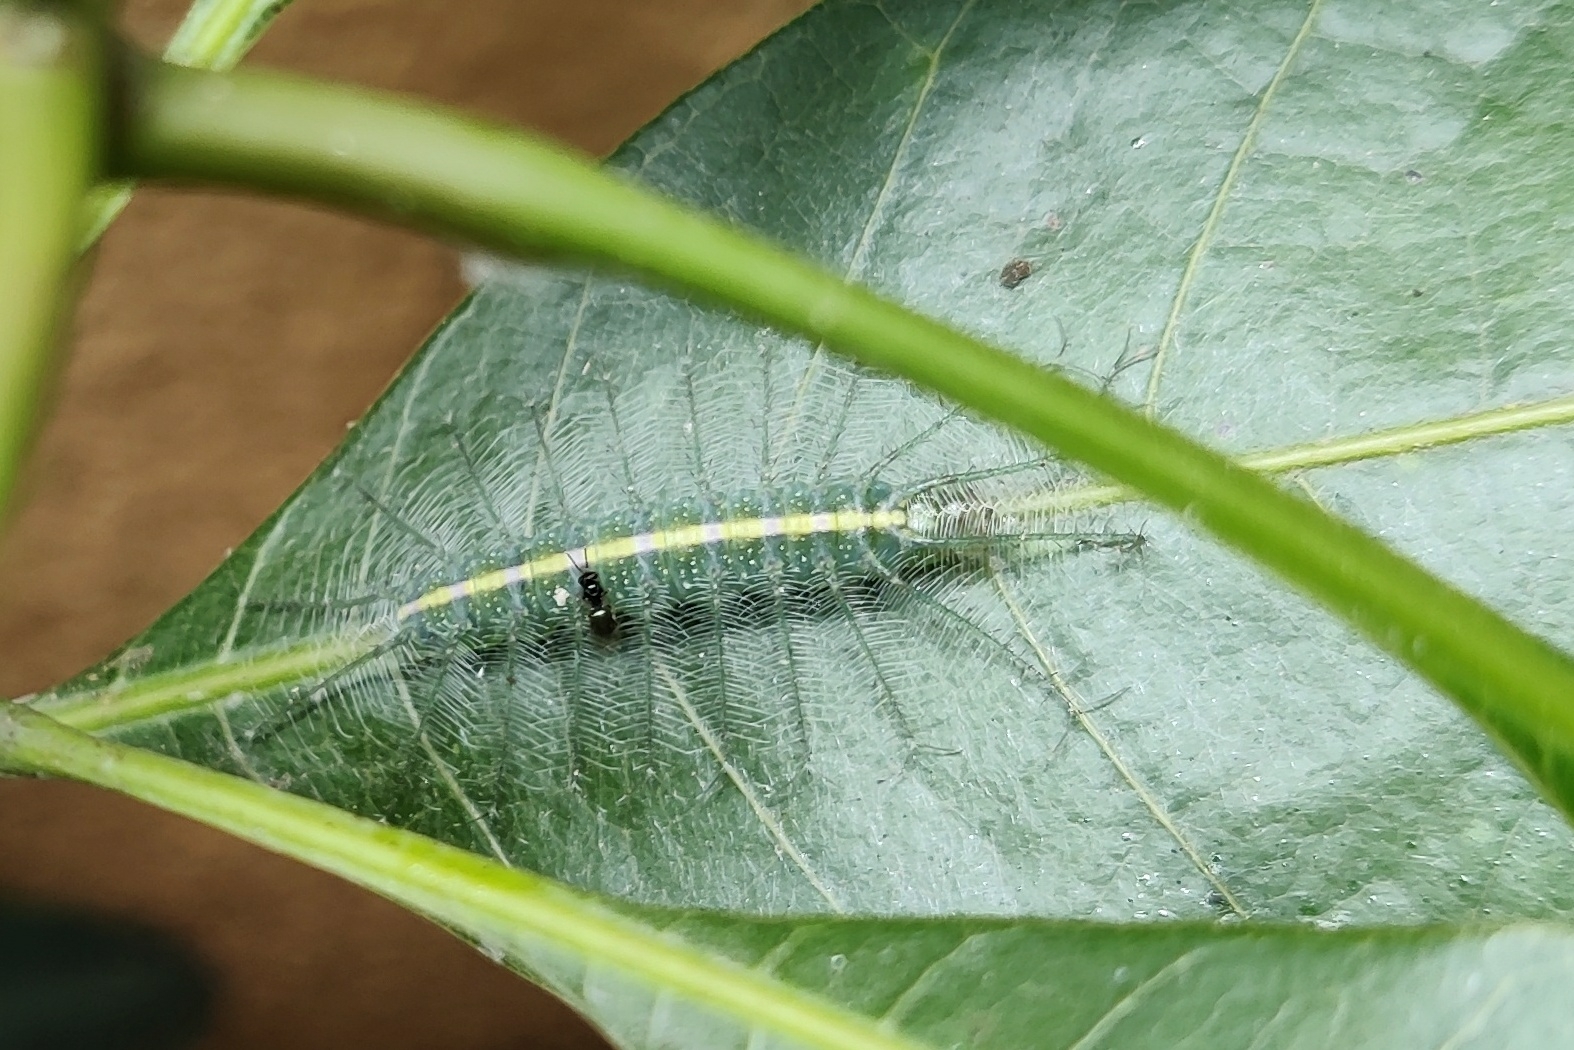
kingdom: Animalia
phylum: Arthropoda
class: Insecta
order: Lepidoptera
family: Nymphalidae
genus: Euthalia
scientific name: Euthalia aconthea
